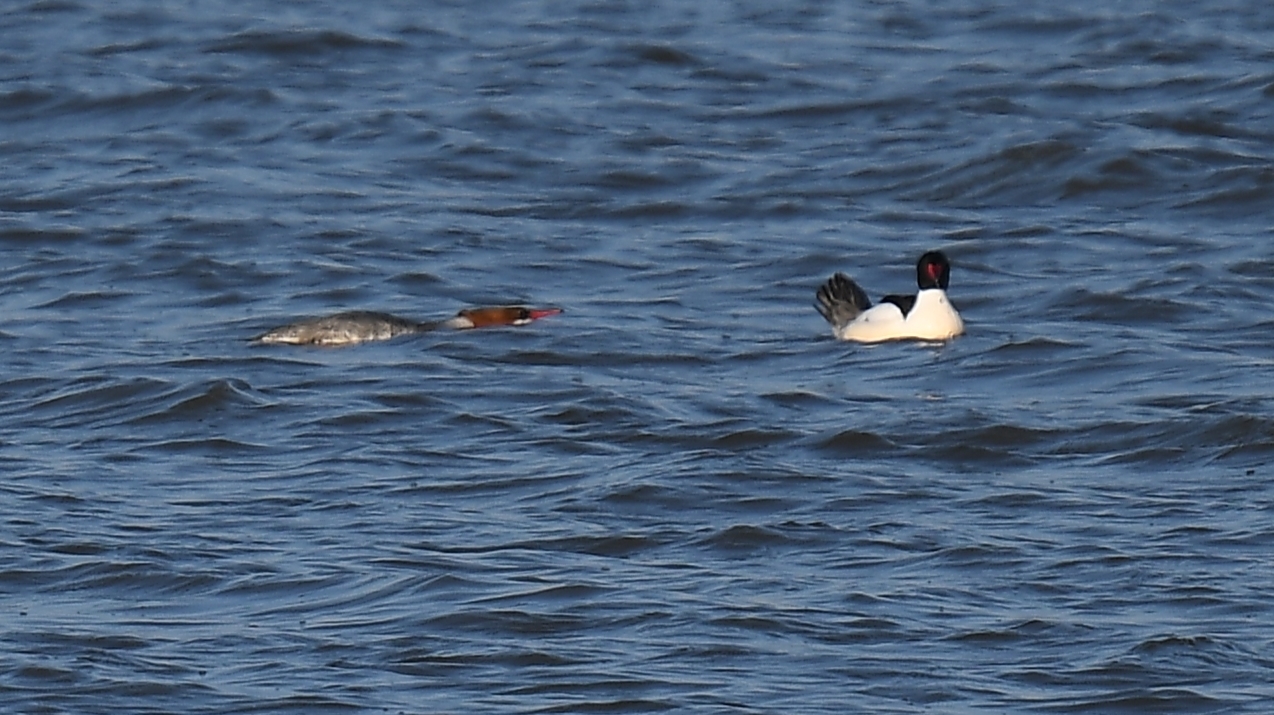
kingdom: Animalia
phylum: Chordata
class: Aves
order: Anseriformes
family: Anatidae
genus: Mergus
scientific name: Mergus merganser
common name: Common merganser
